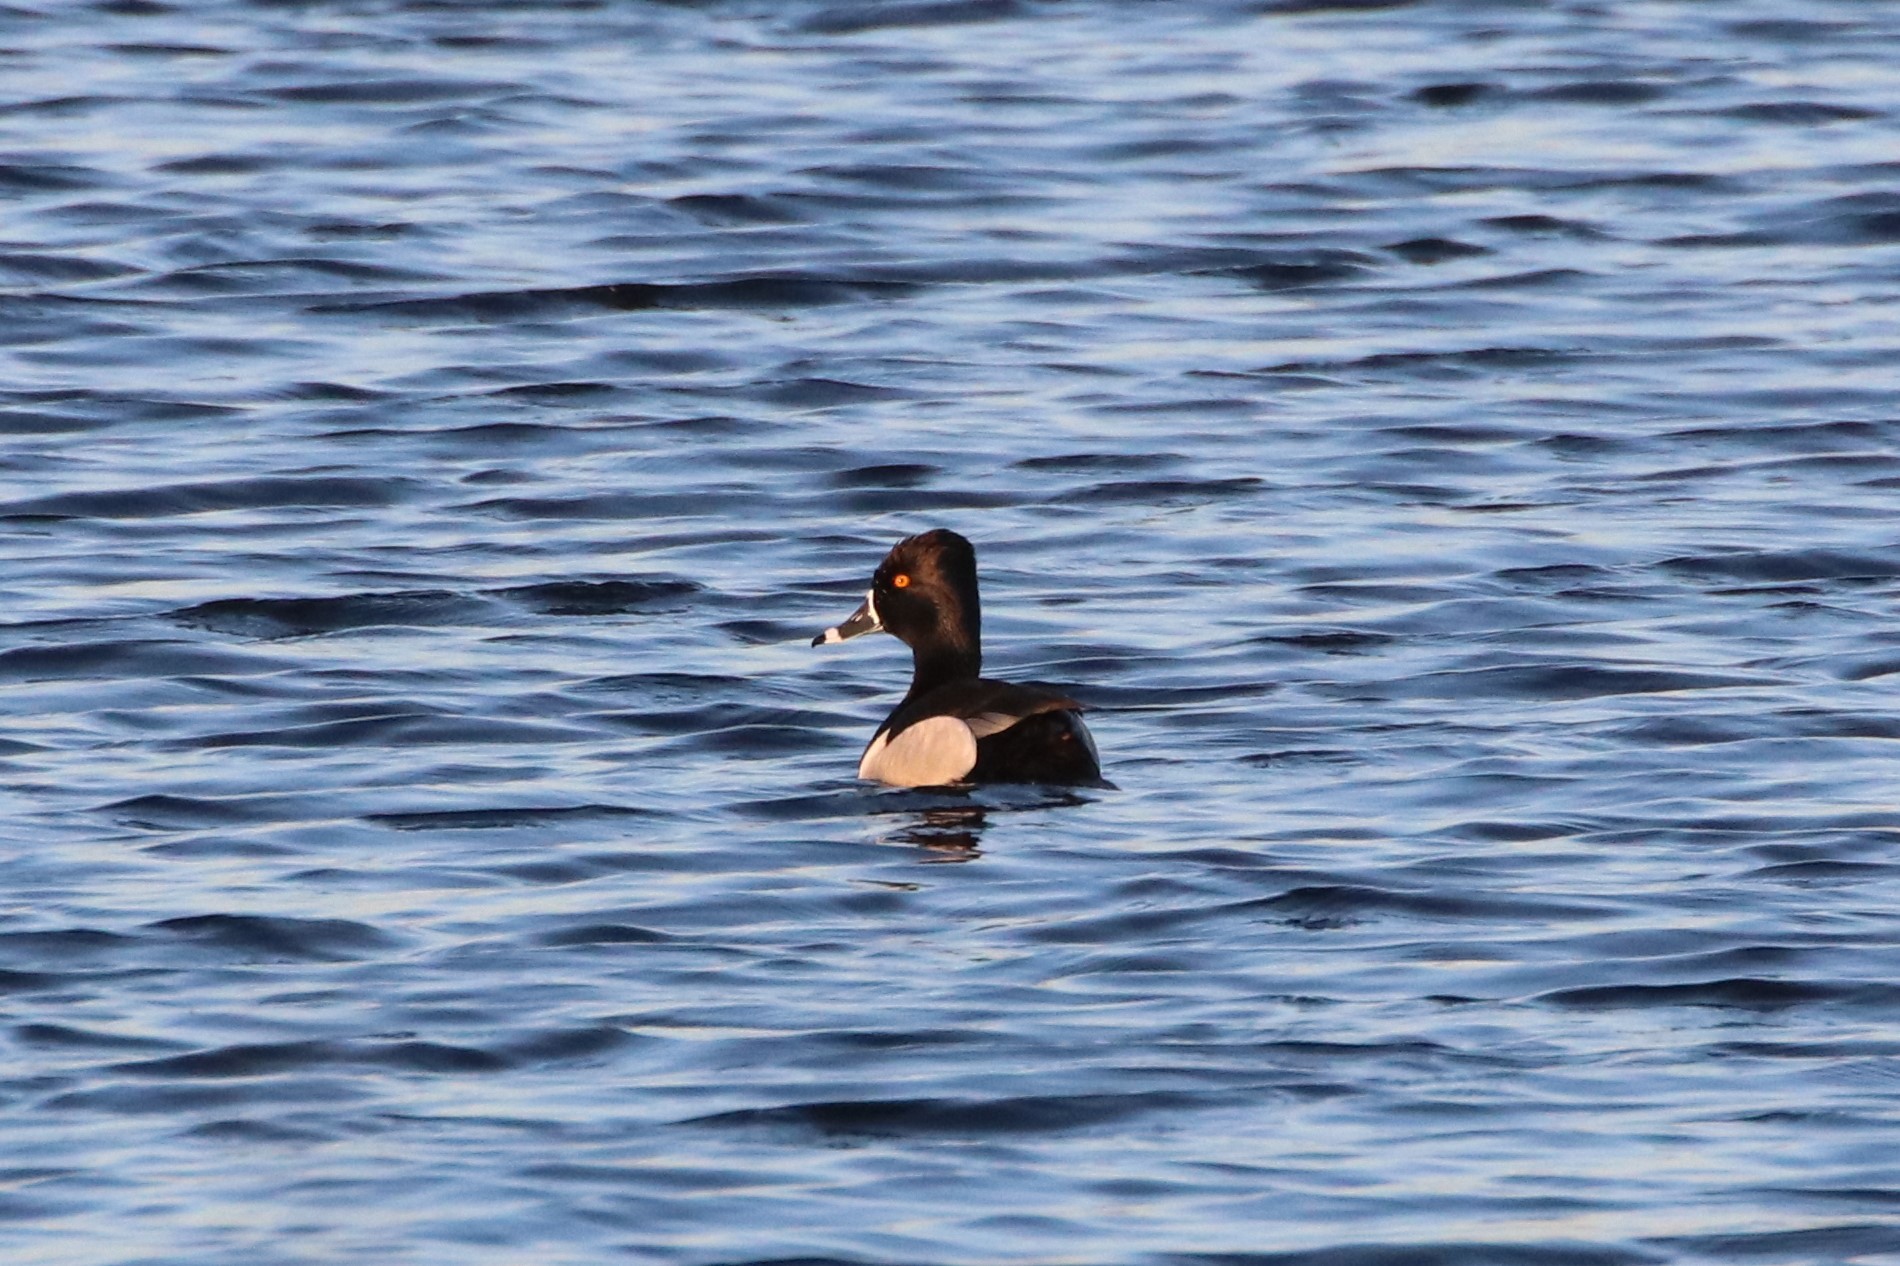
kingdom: Animalia
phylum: Chordata
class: Aves
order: Anseriformes
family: Anatidae
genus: Aythya
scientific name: Aythya collaris
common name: Ring-necked duck
